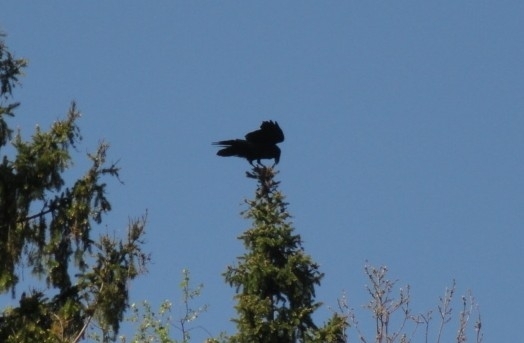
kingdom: Animalia
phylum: Chordata
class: Aves
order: Passeriformes
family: Corvidae
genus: Corvus
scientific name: Corvus corax
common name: Common raven
